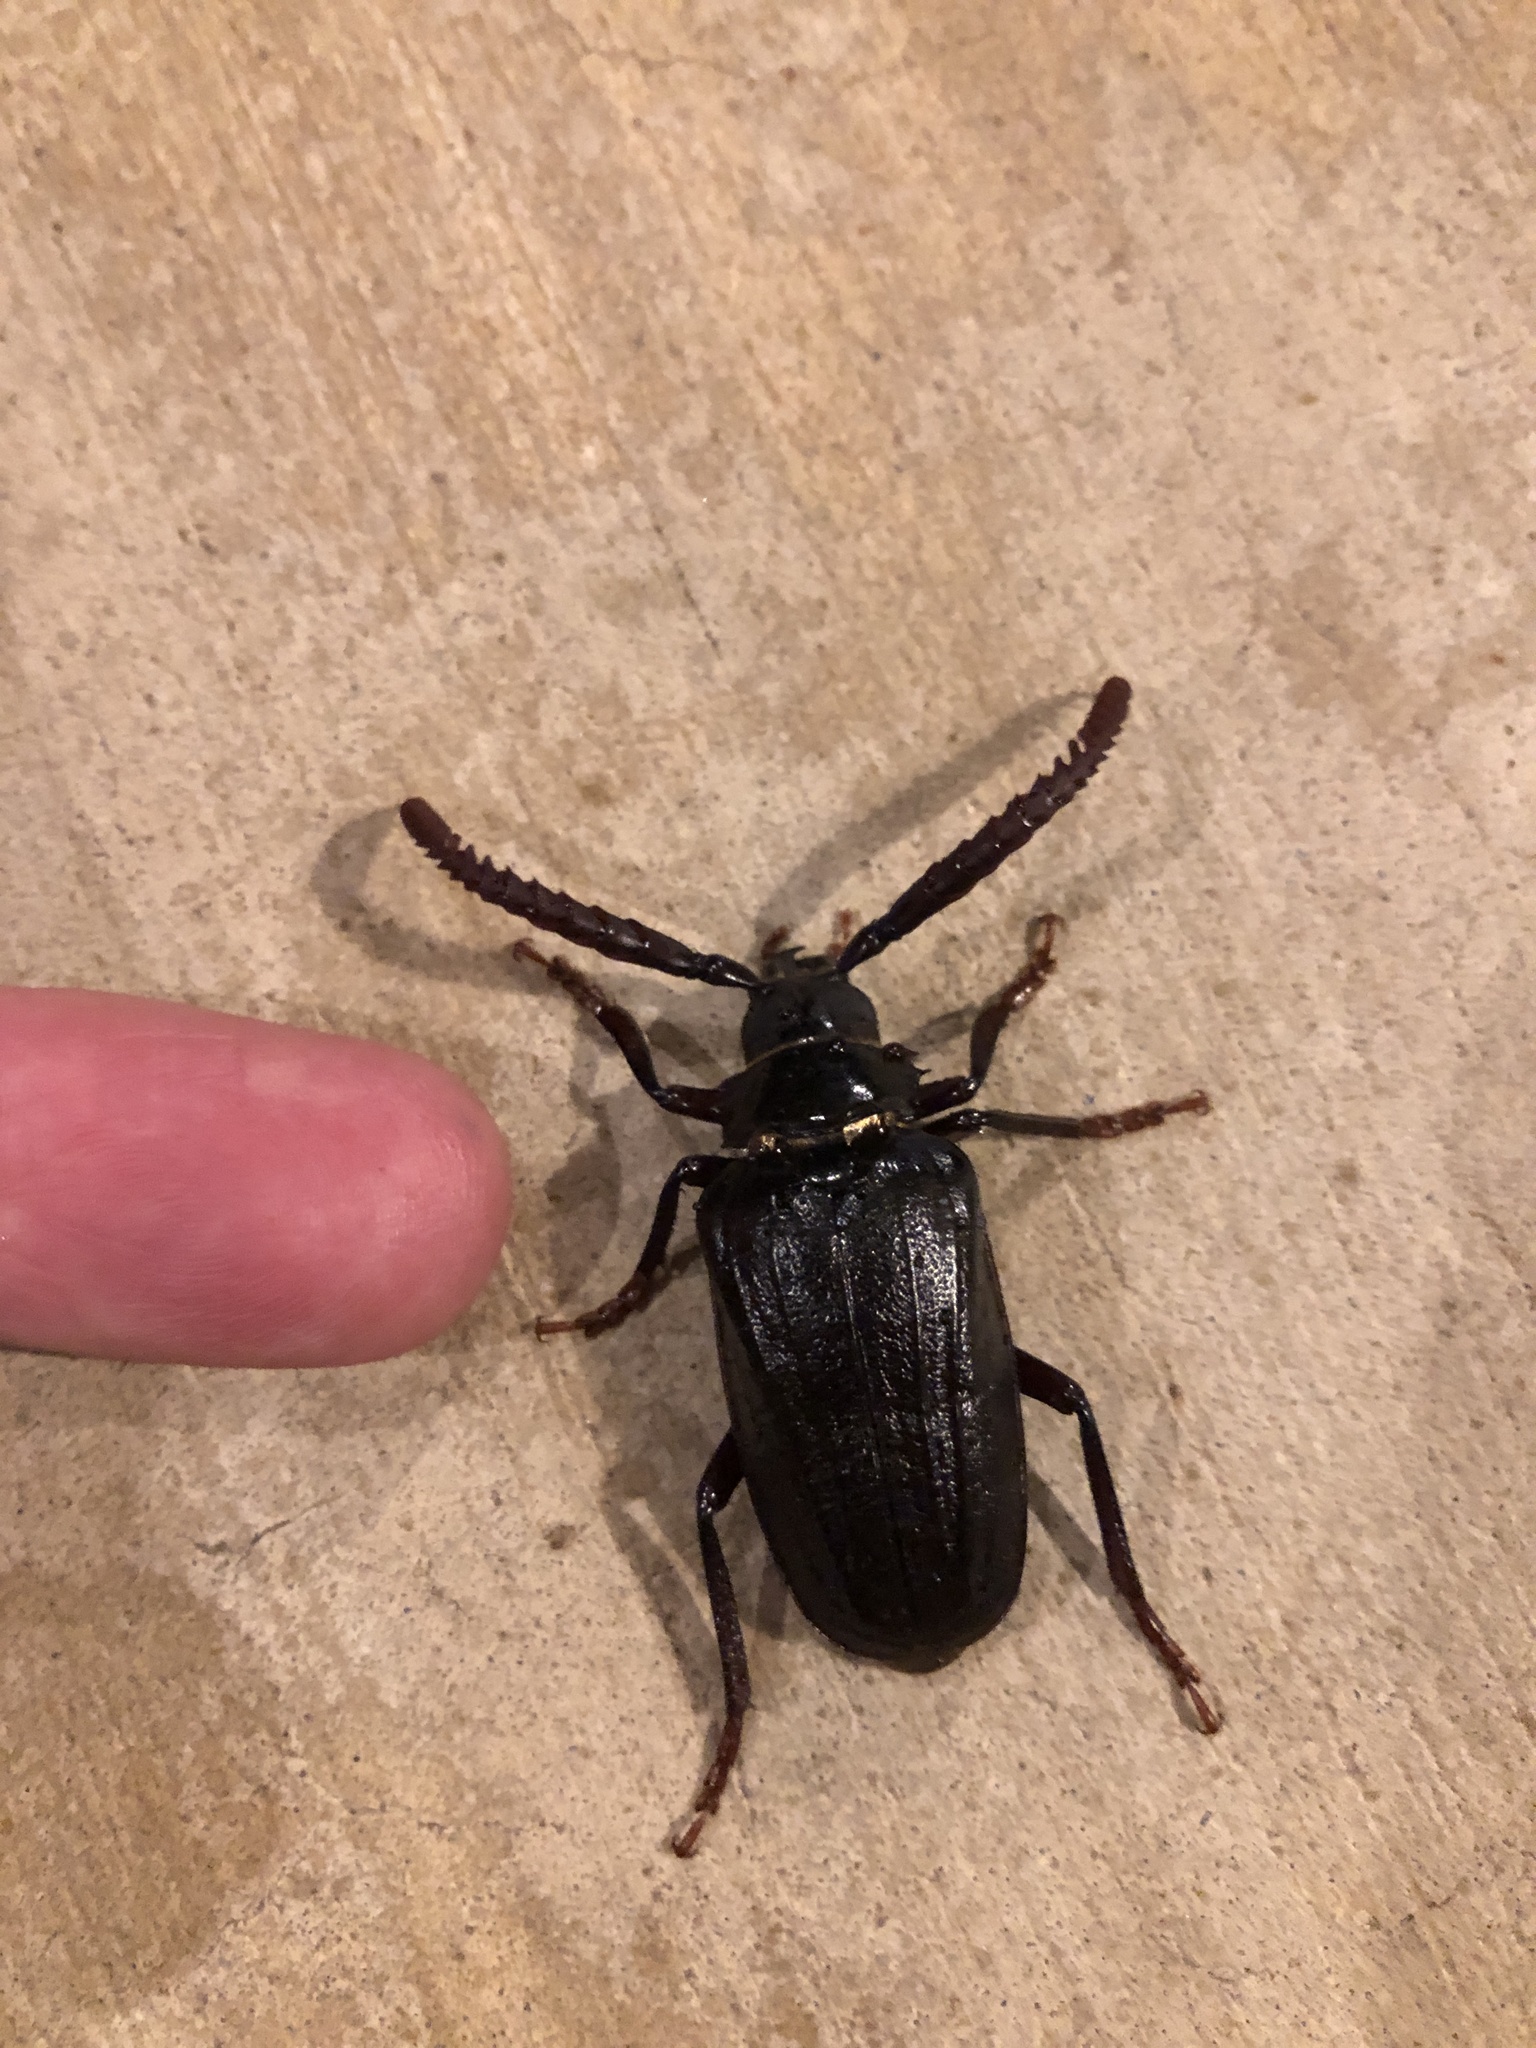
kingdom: Animalia
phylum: Arthropoda
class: Insecta
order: Coleoptera
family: Cerambycidae
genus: Prionus
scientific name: Prionus imbricornis
